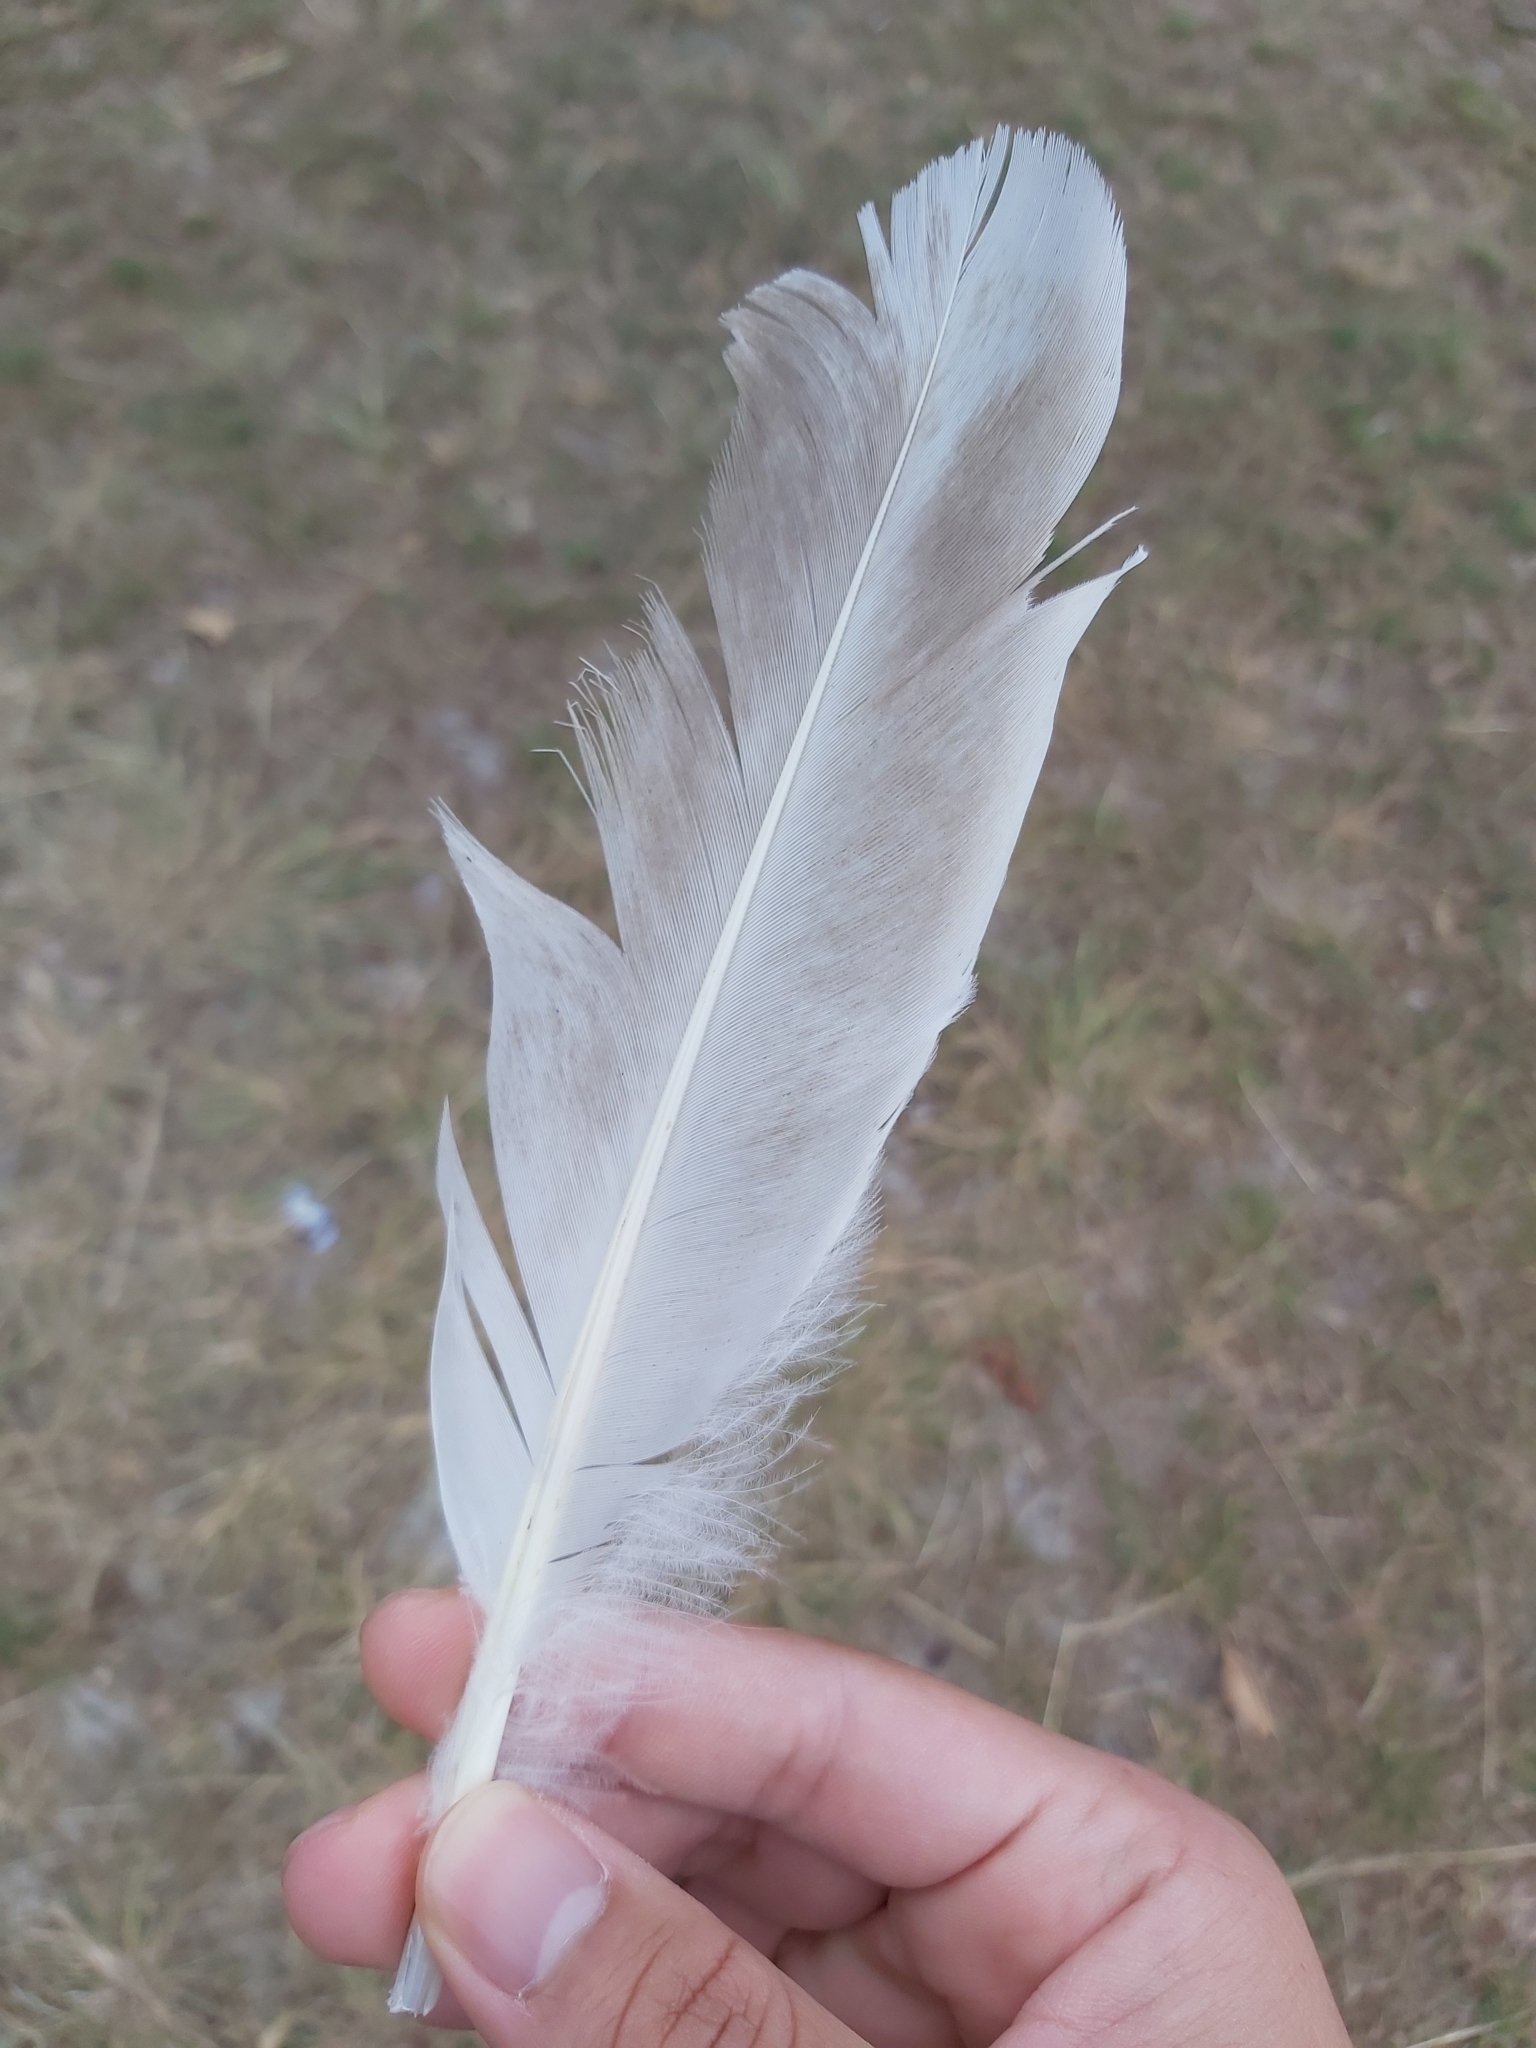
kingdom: Animalia
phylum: Chordata
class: Aves
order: Pelecaniformes
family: Threskiornithidae
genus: Threskiornis
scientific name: Threskiornis molucca
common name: Australian white ibis
